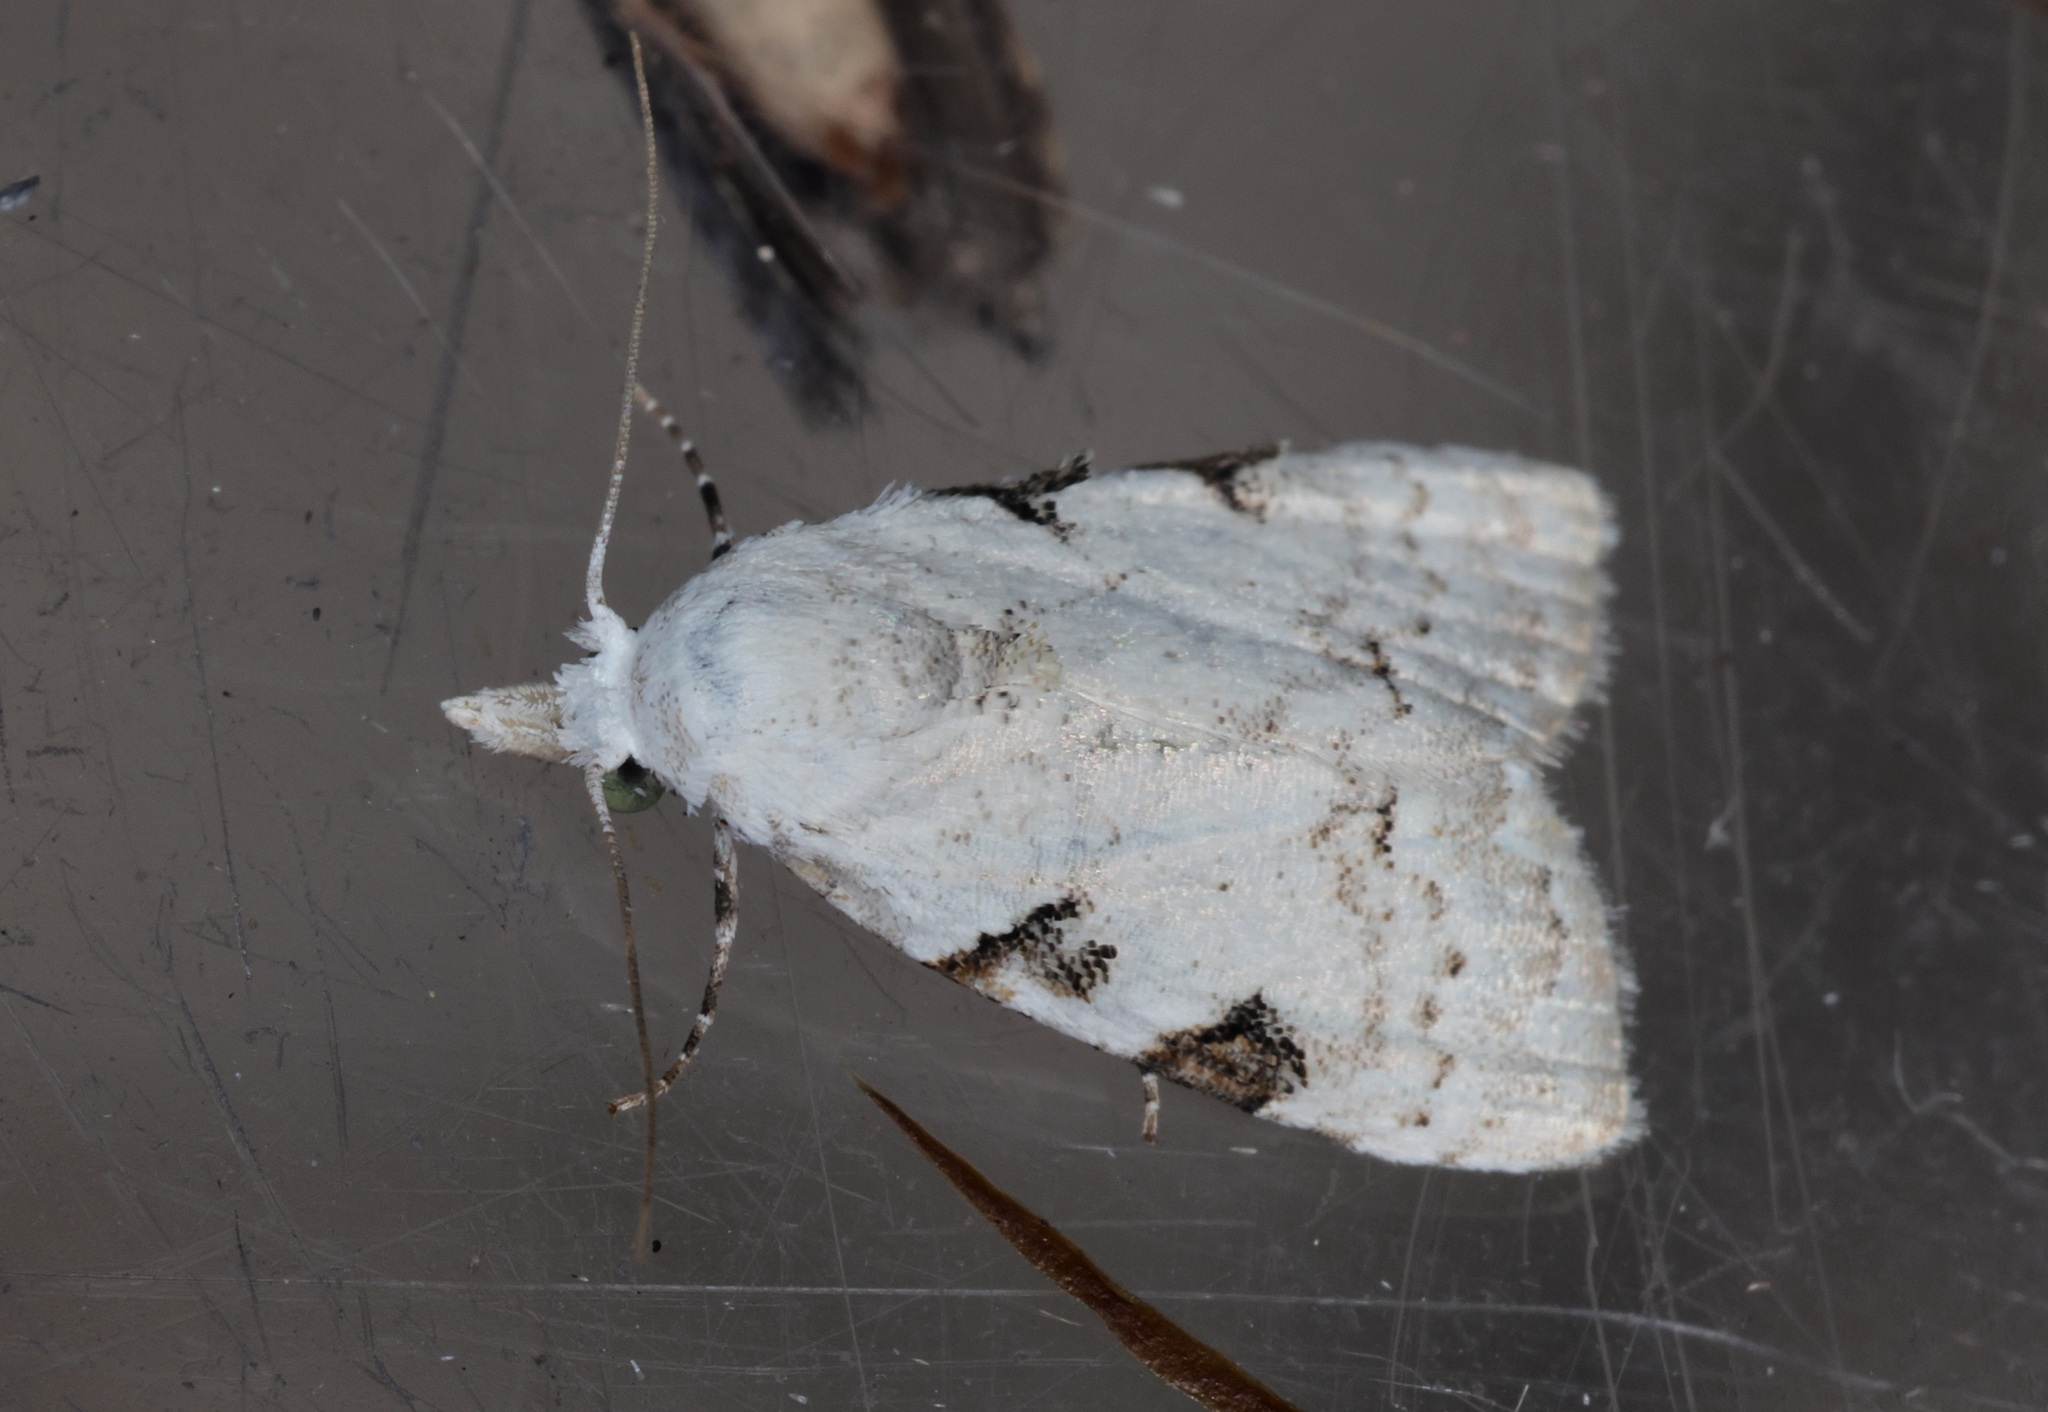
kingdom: Animalia
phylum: Arthropoda
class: Insecta
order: Lepidoptera
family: Nolidae
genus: Nola
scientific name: Nola pascua
